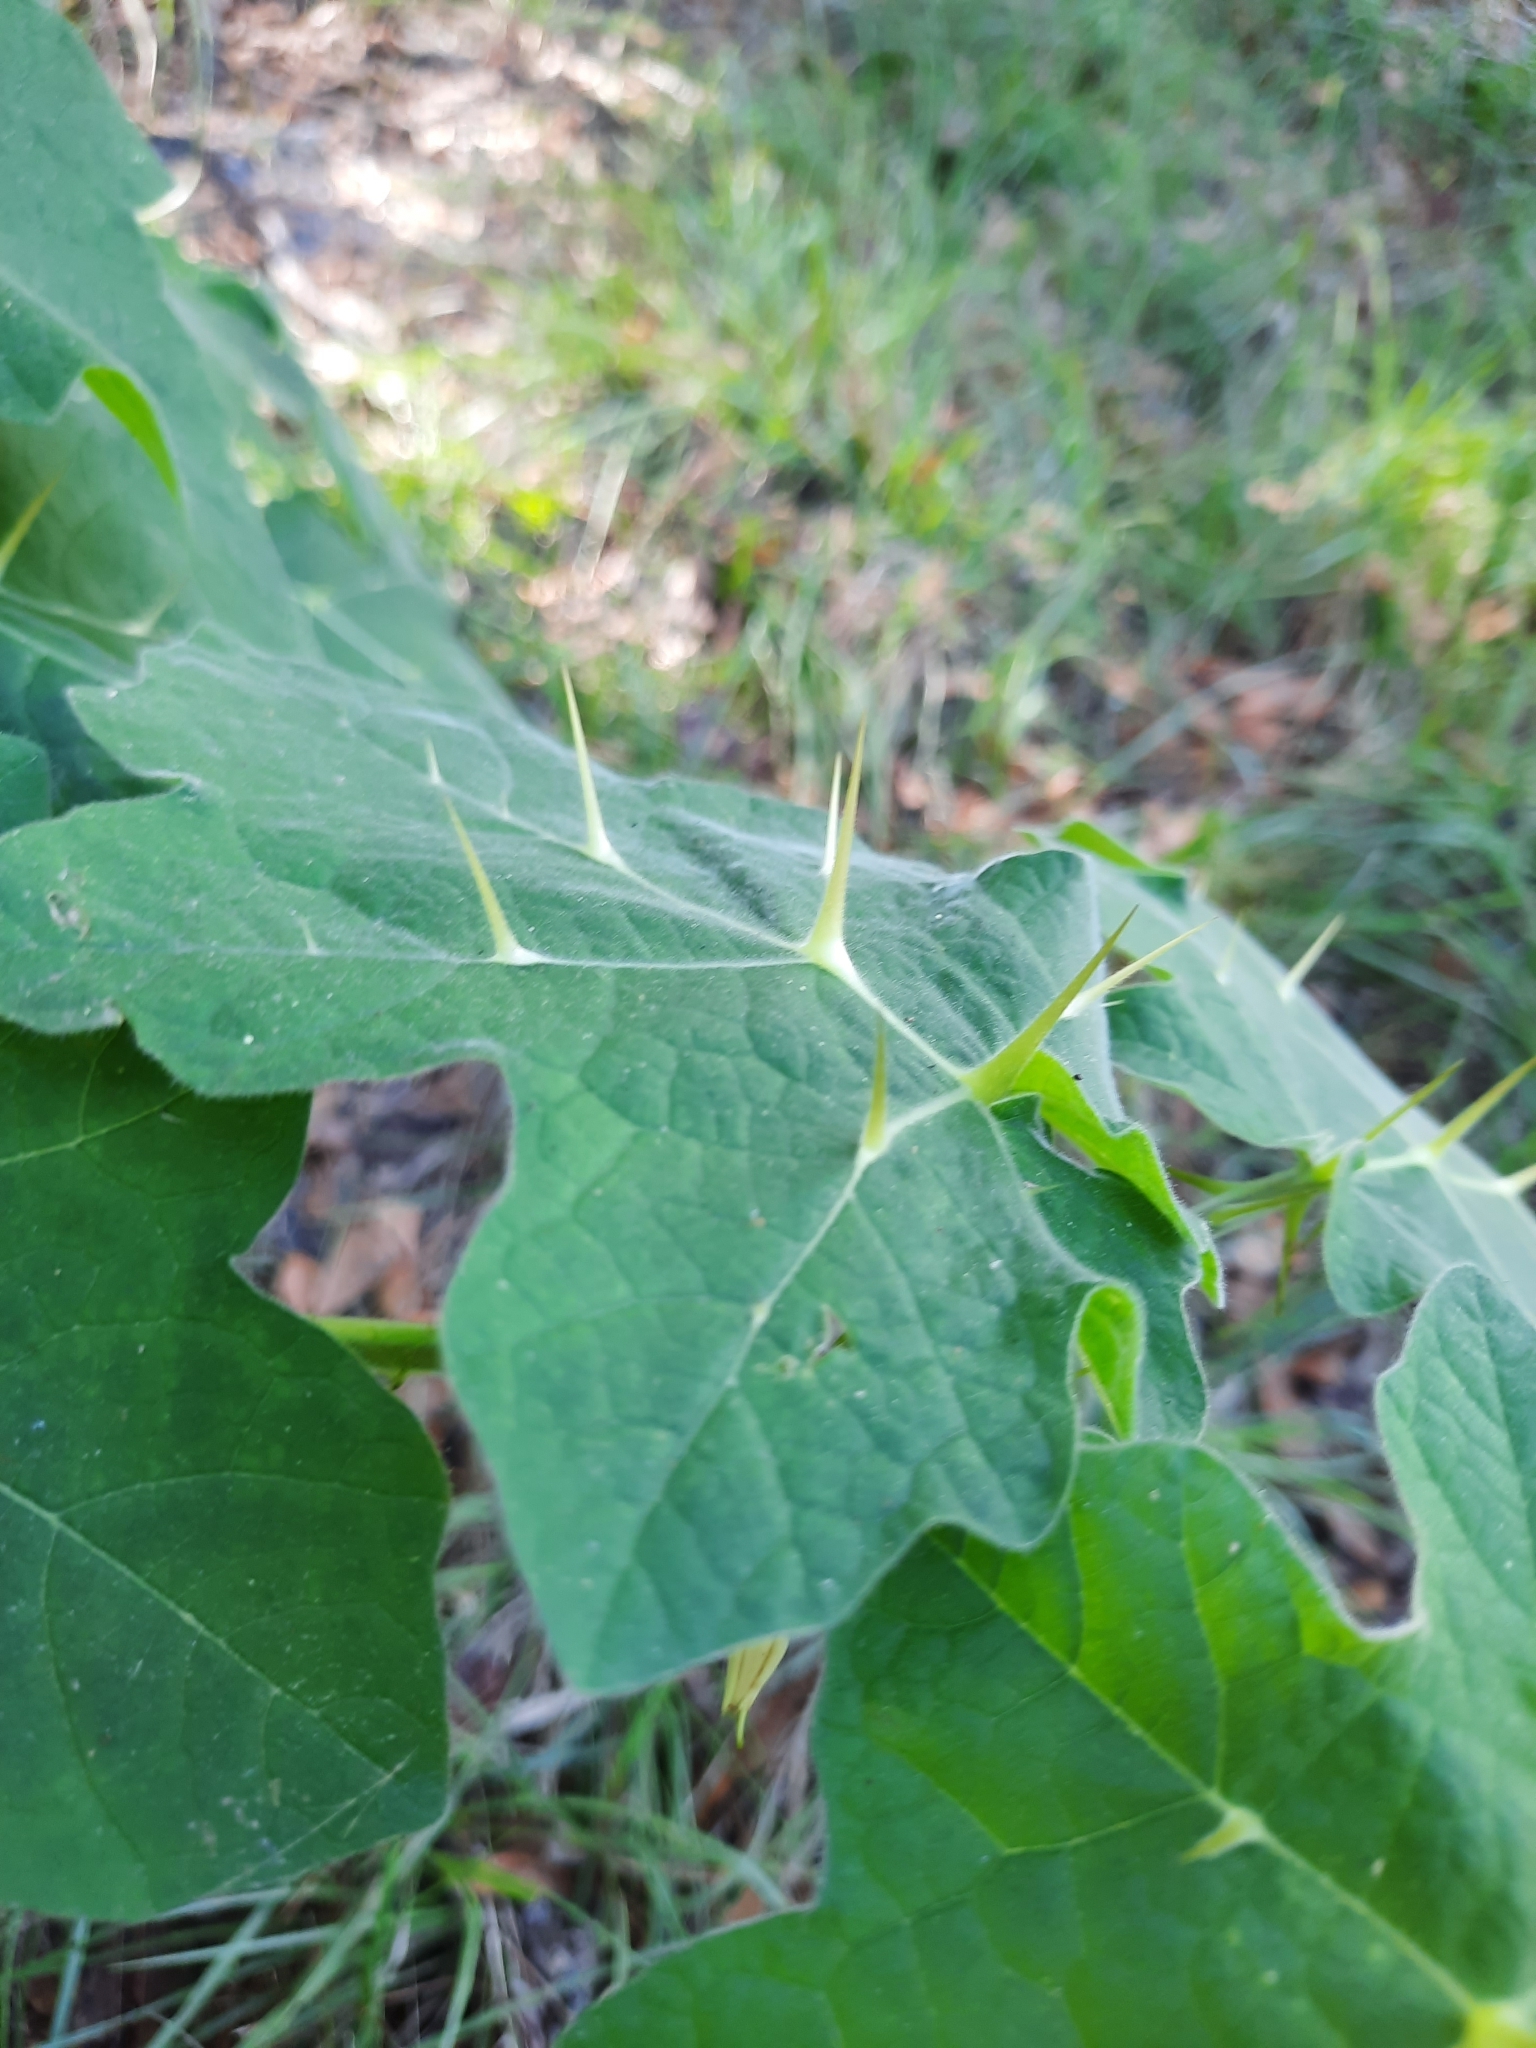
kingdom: Plantae
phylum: Tracheophyta
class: Magnoliopsida
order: Solanales
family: Solanaceae
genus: Solanum
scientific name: Solanum viarum
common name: Tropical soda apple
